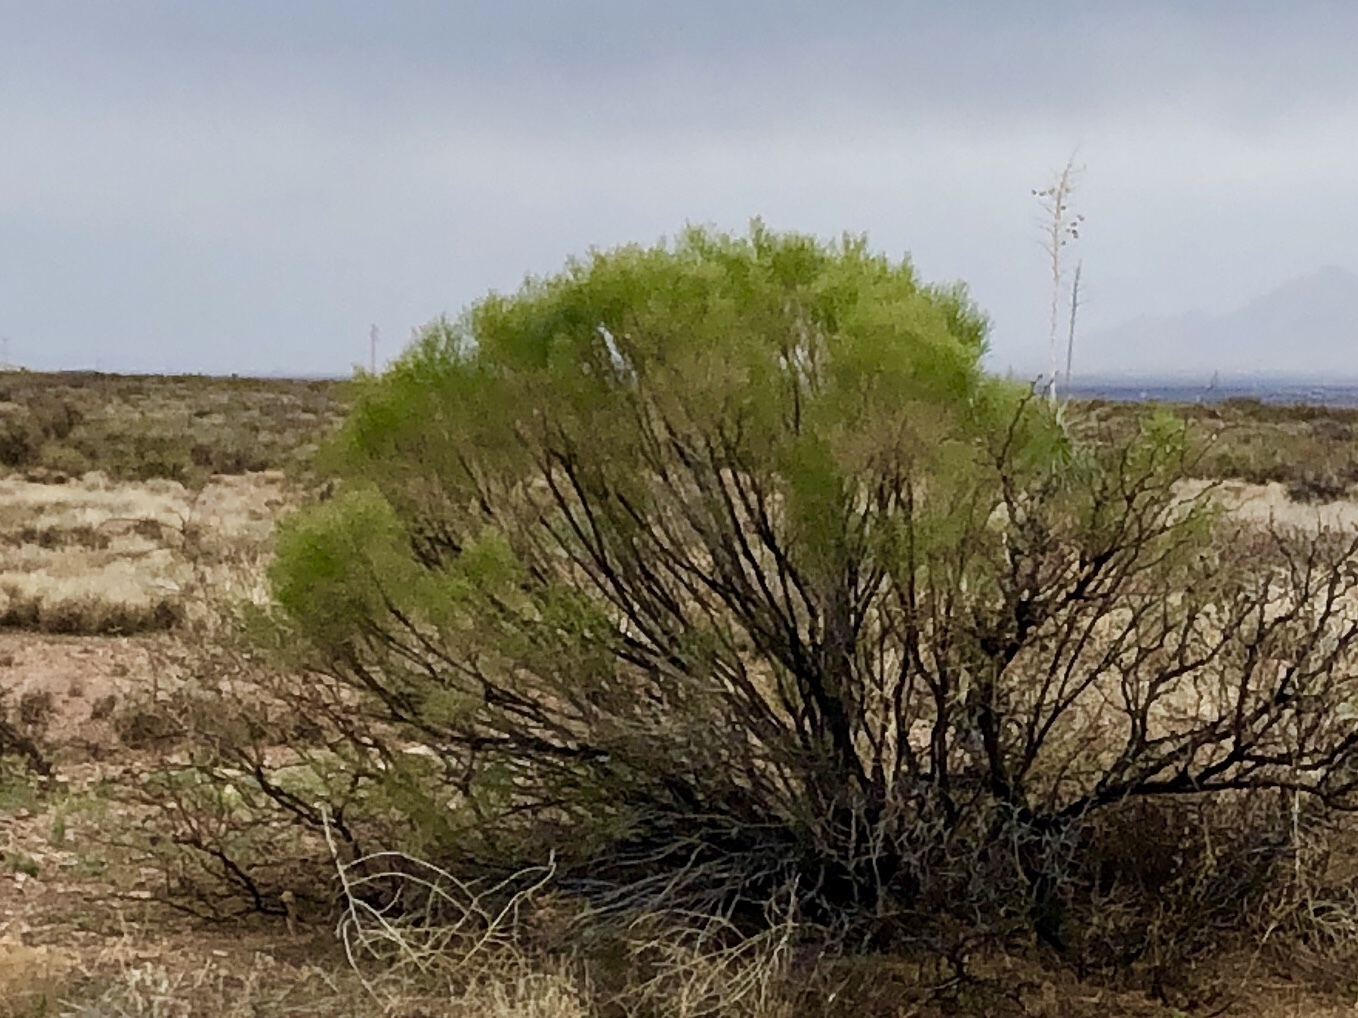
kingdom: Plantae
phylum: Tracheophyta
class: Magnoliopsida
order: Asterales
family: Asteraceae
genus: Baccharis
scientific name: Baccharis sarothroides
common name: Desert-broom
